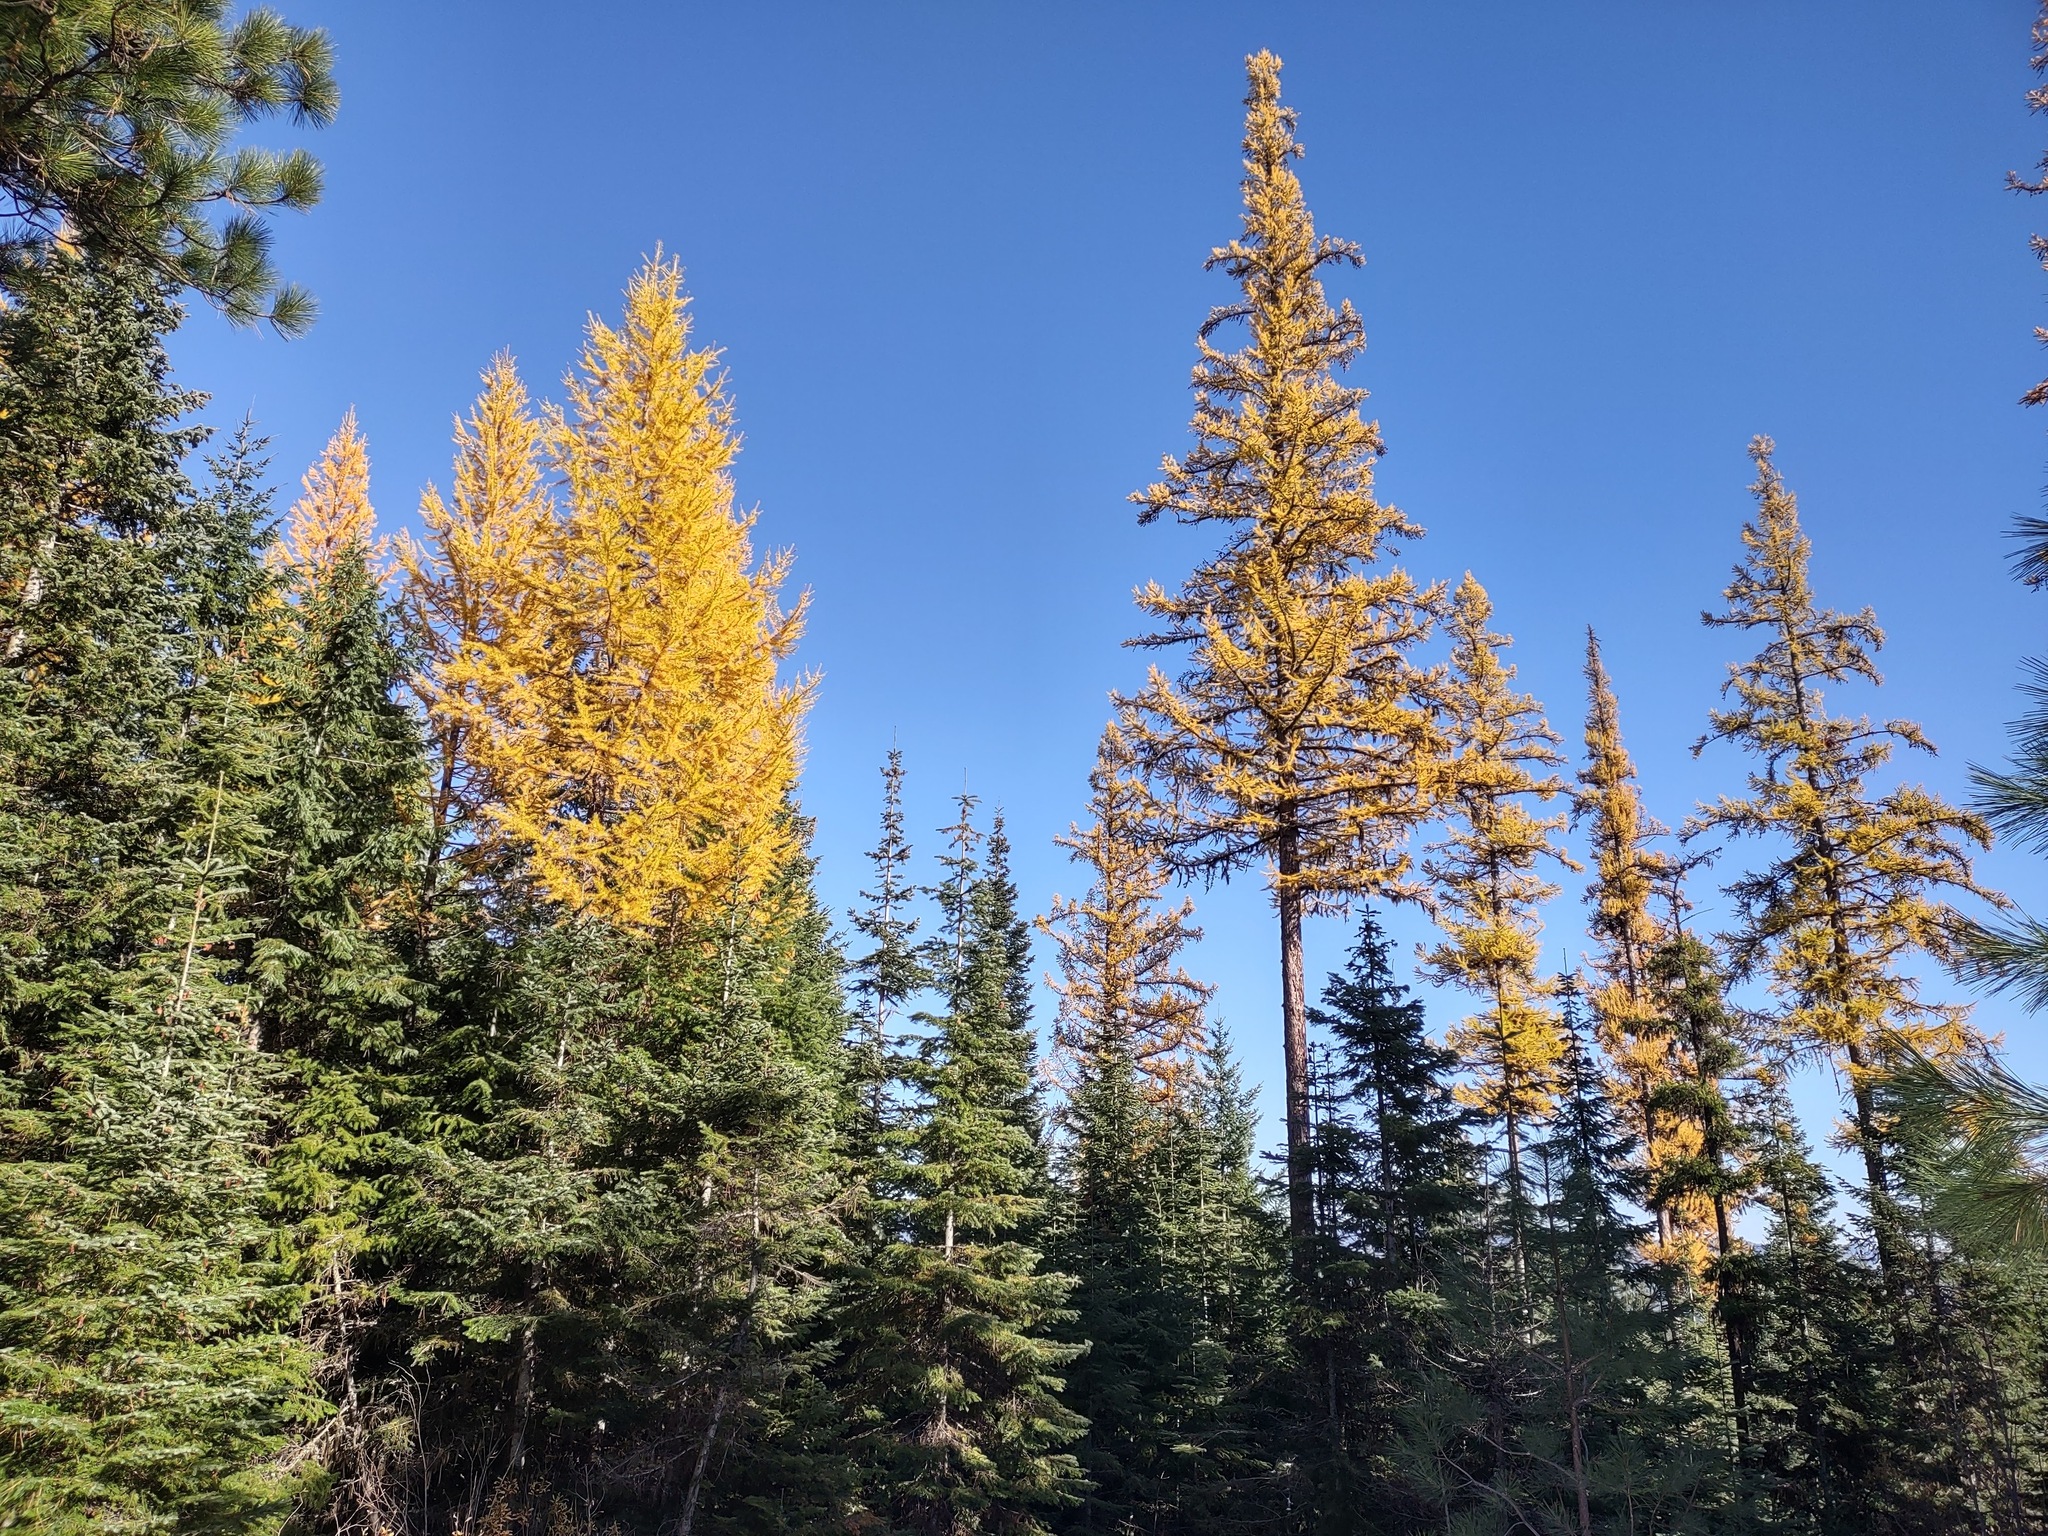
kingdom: Plantae
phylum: Tracheophyta
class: Pinopsida
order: Pinales
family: Pinaceae
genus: Larix
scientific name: Larix occidentalis
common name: Western larch
